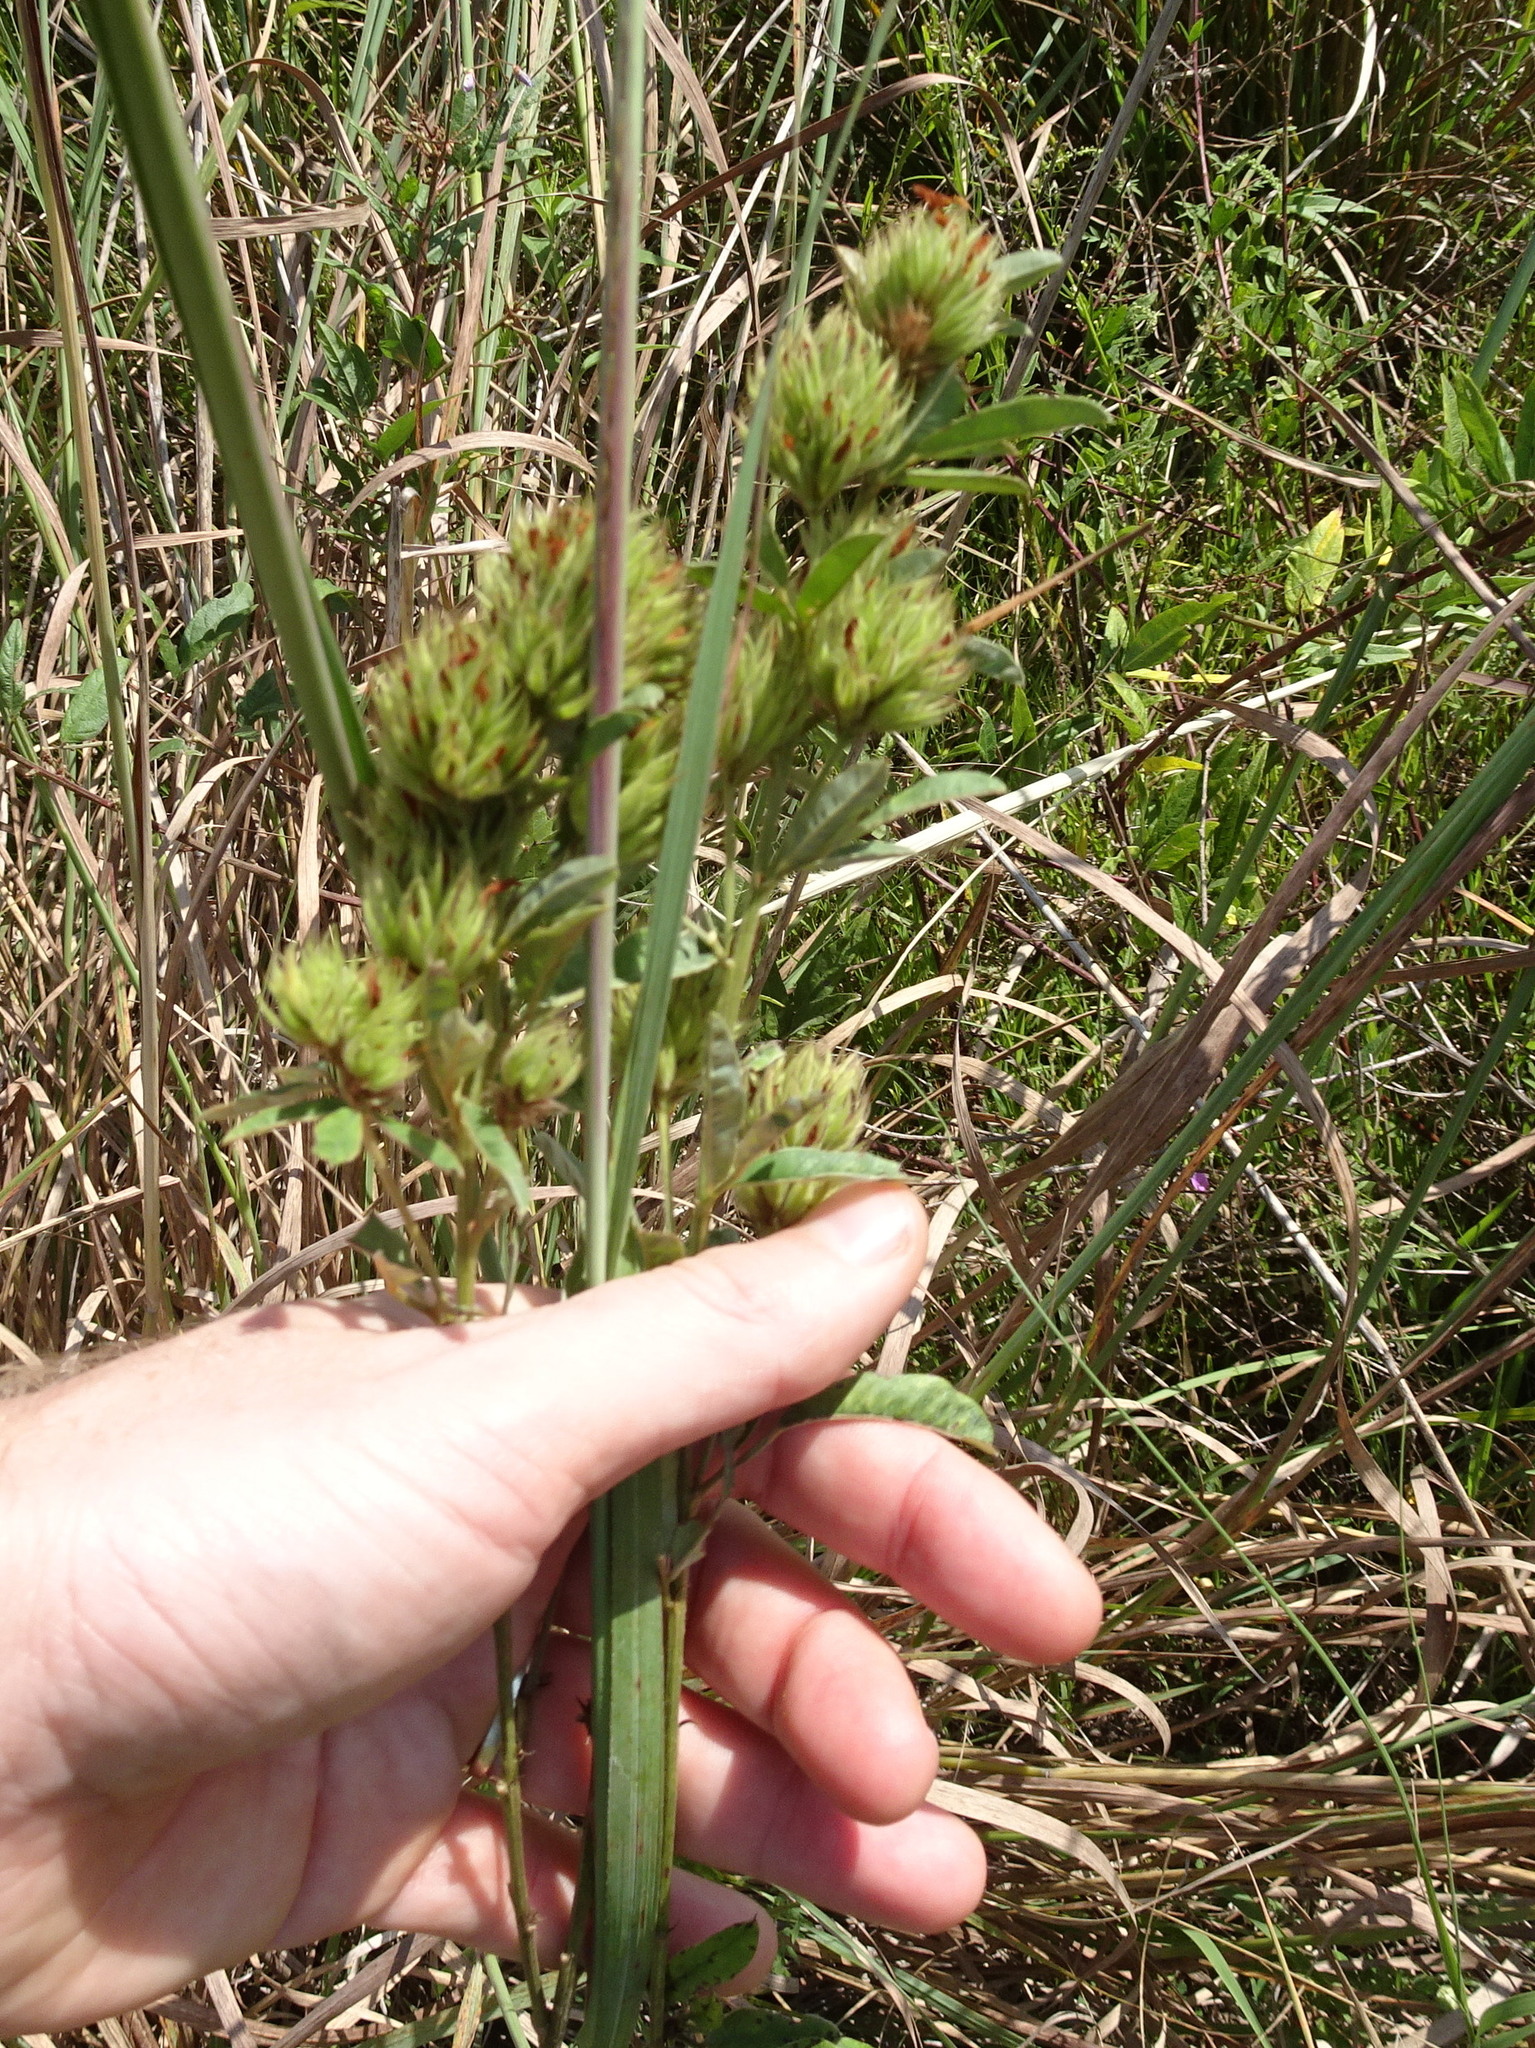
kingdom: Plantae
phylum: Tracheophyta
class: Magnoliopsida
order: Fabales
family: Fabaceae
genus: Lespedeza
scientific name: Lespedeza capitata
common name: Dusty clover
